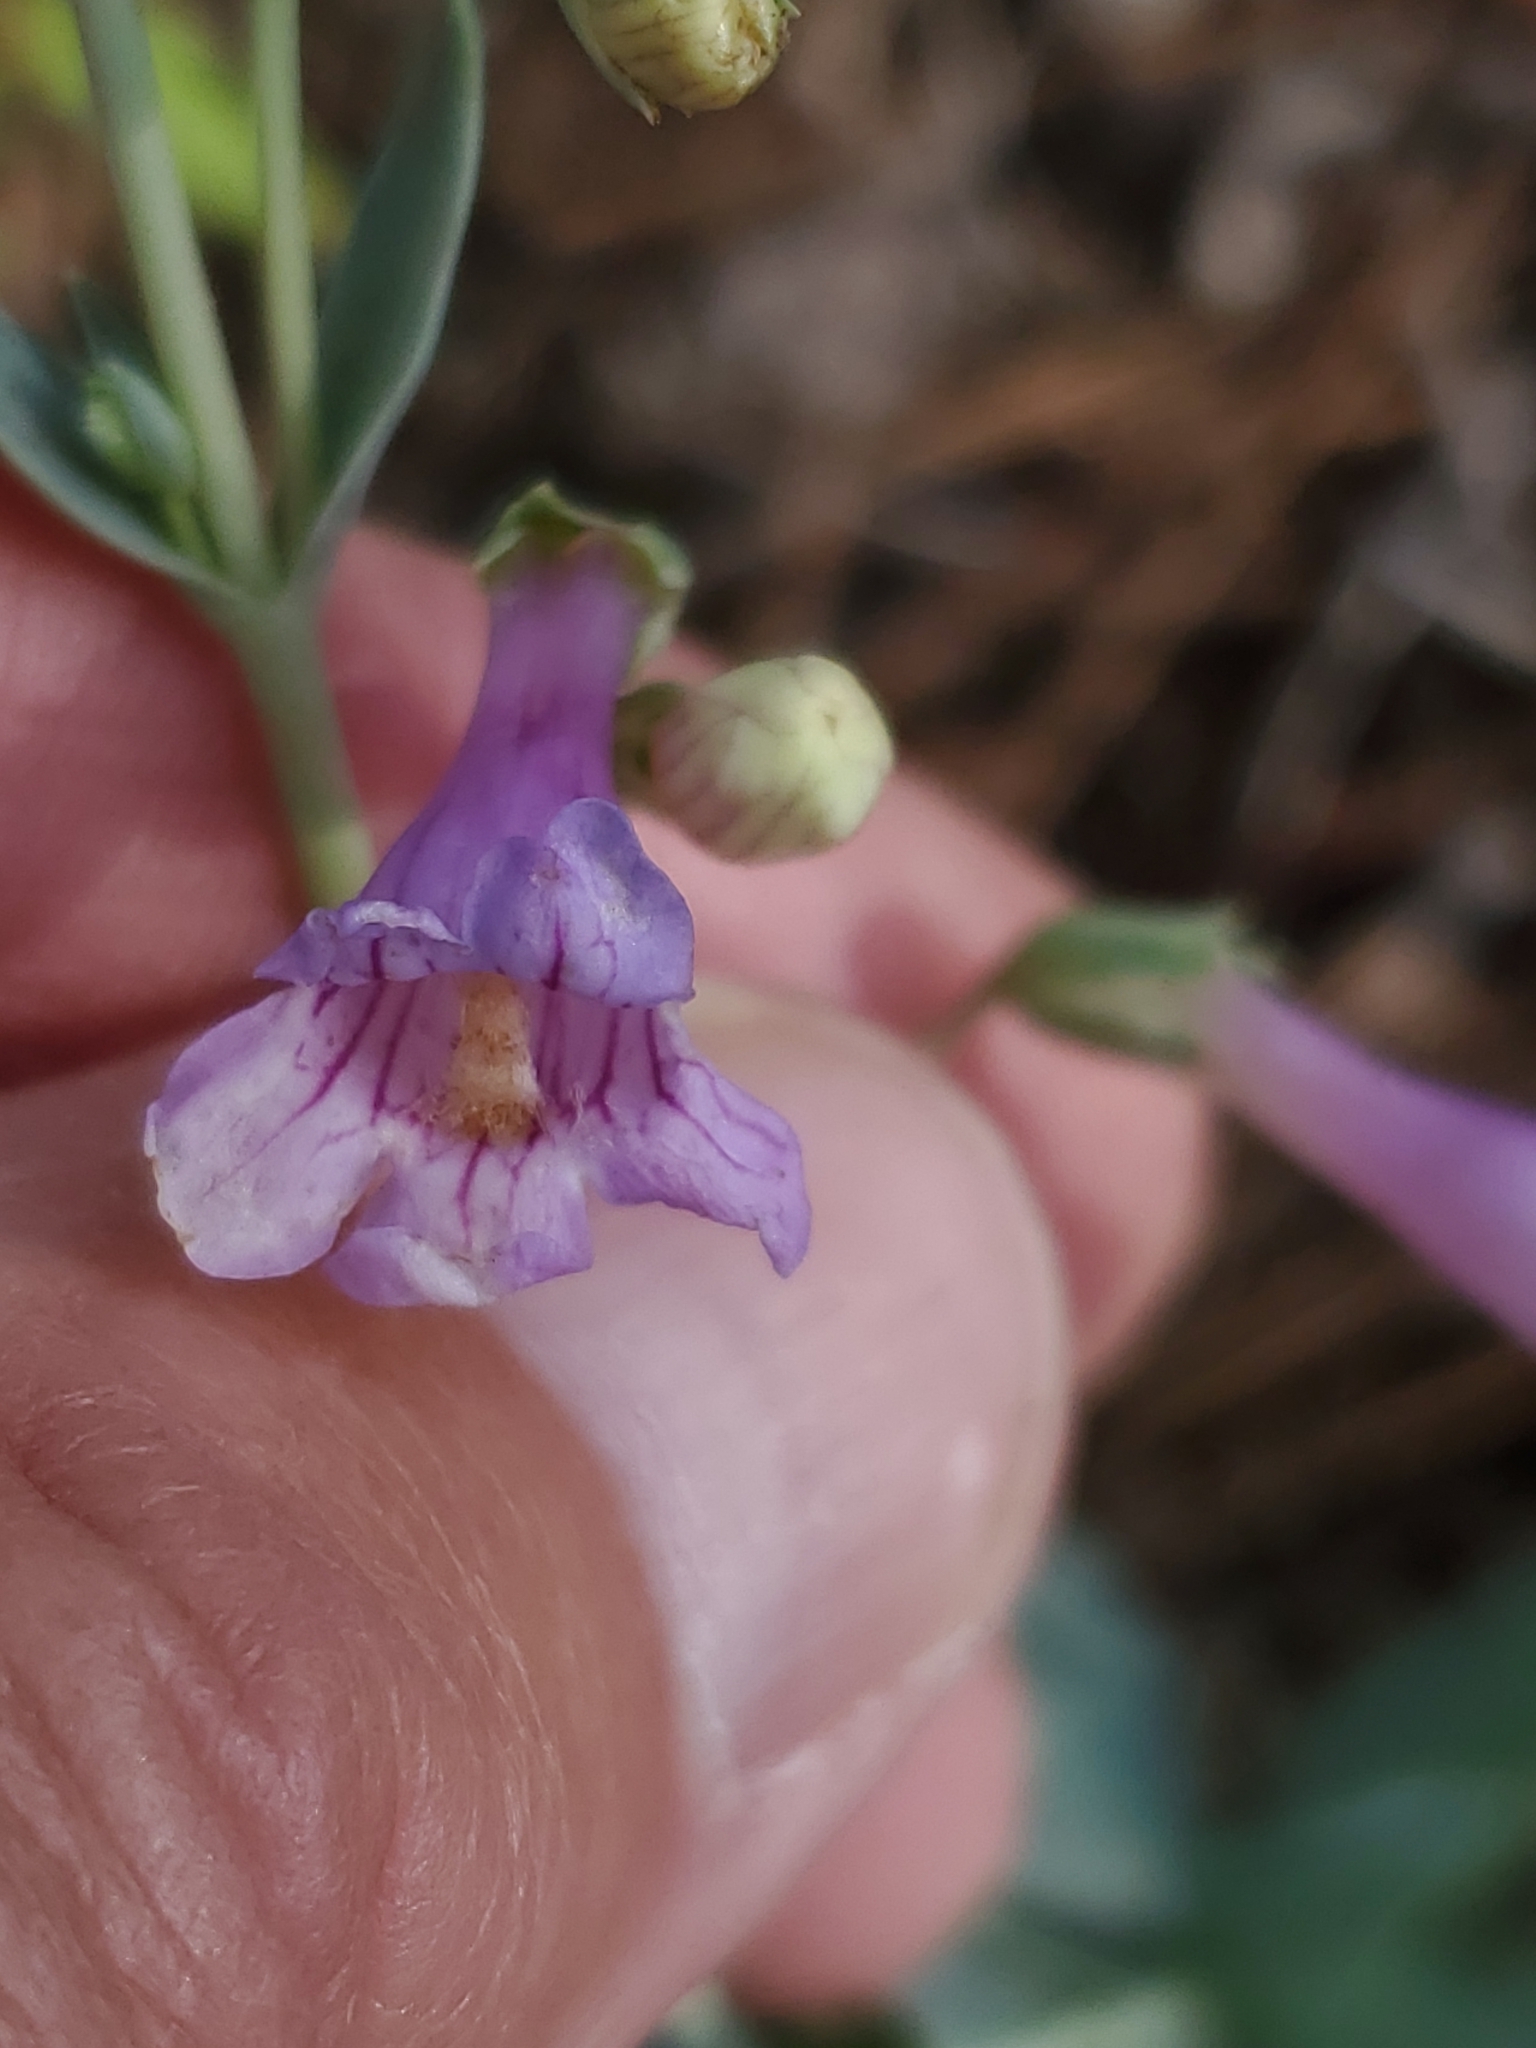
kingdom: Plantae
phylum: Tracheophyta
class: Magnoliopsida
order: Lamiales
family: Plantaginaceae
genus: Penstemon
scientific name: Penstemon secundiflorus
